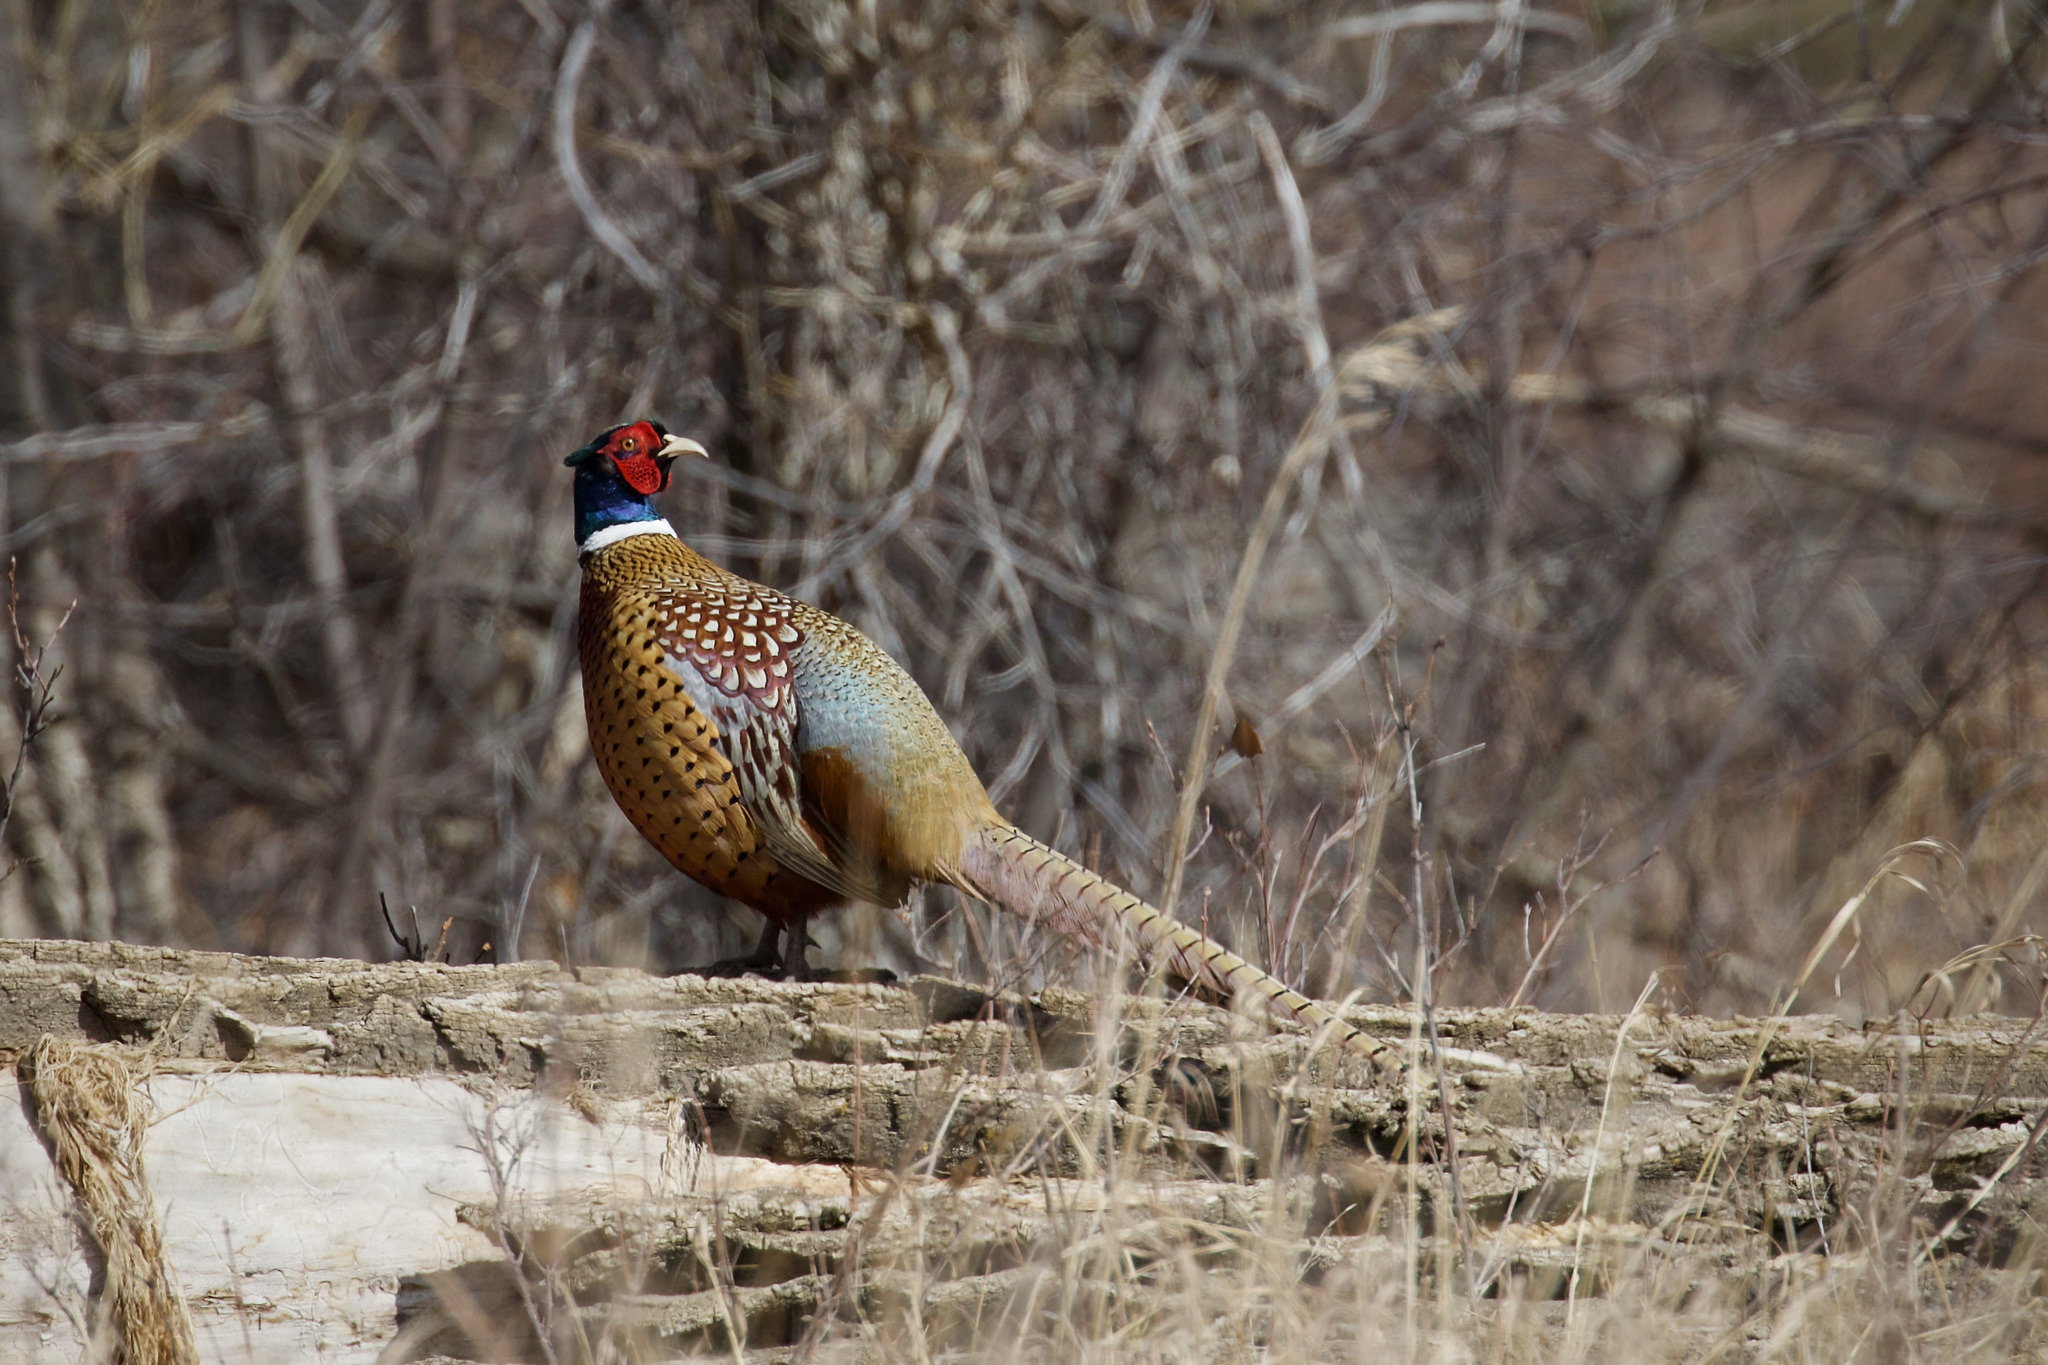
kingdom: Animalia
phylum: Chordata
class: Aves
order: Galliformes
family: Phasianidae
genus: Phasianus
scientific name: Phasianus colchicus
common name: Common pheasant
